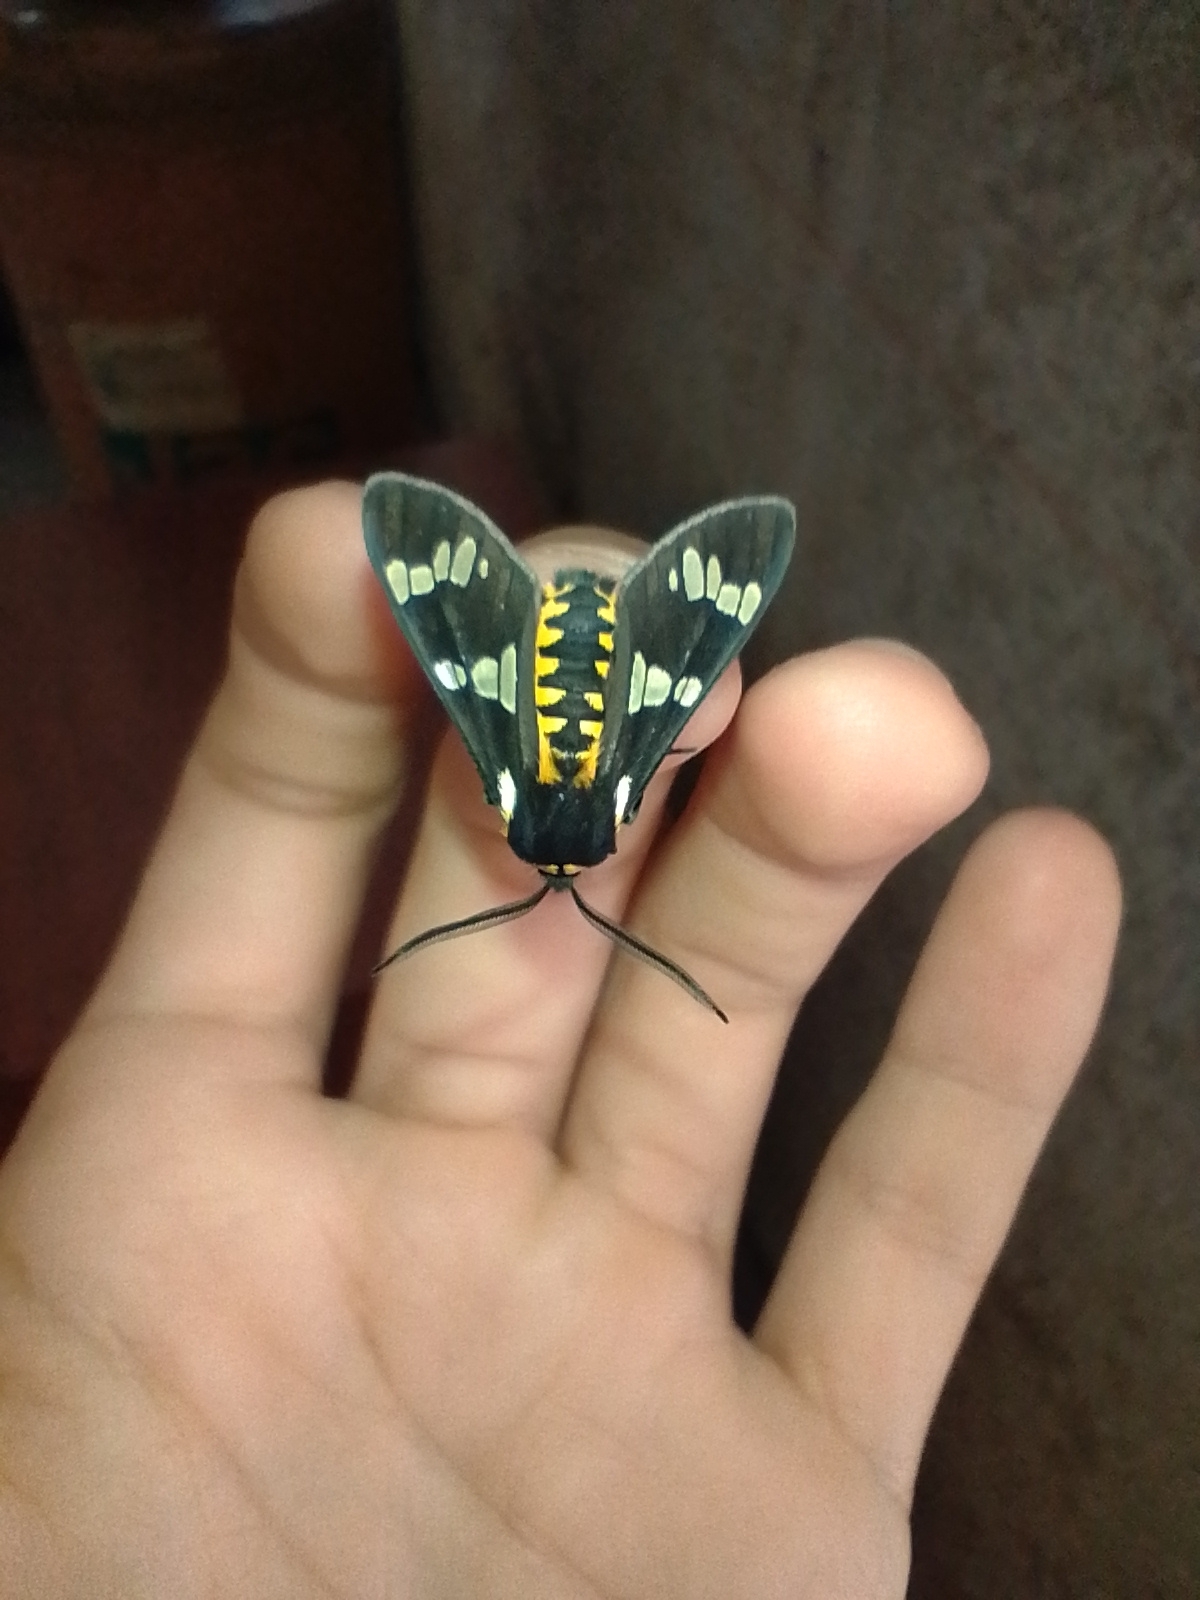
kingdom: Animalia
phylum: Arthropoda
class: Insecta
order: Lepidoptera
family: Erebidae
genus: Eurata
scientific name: Eurata
